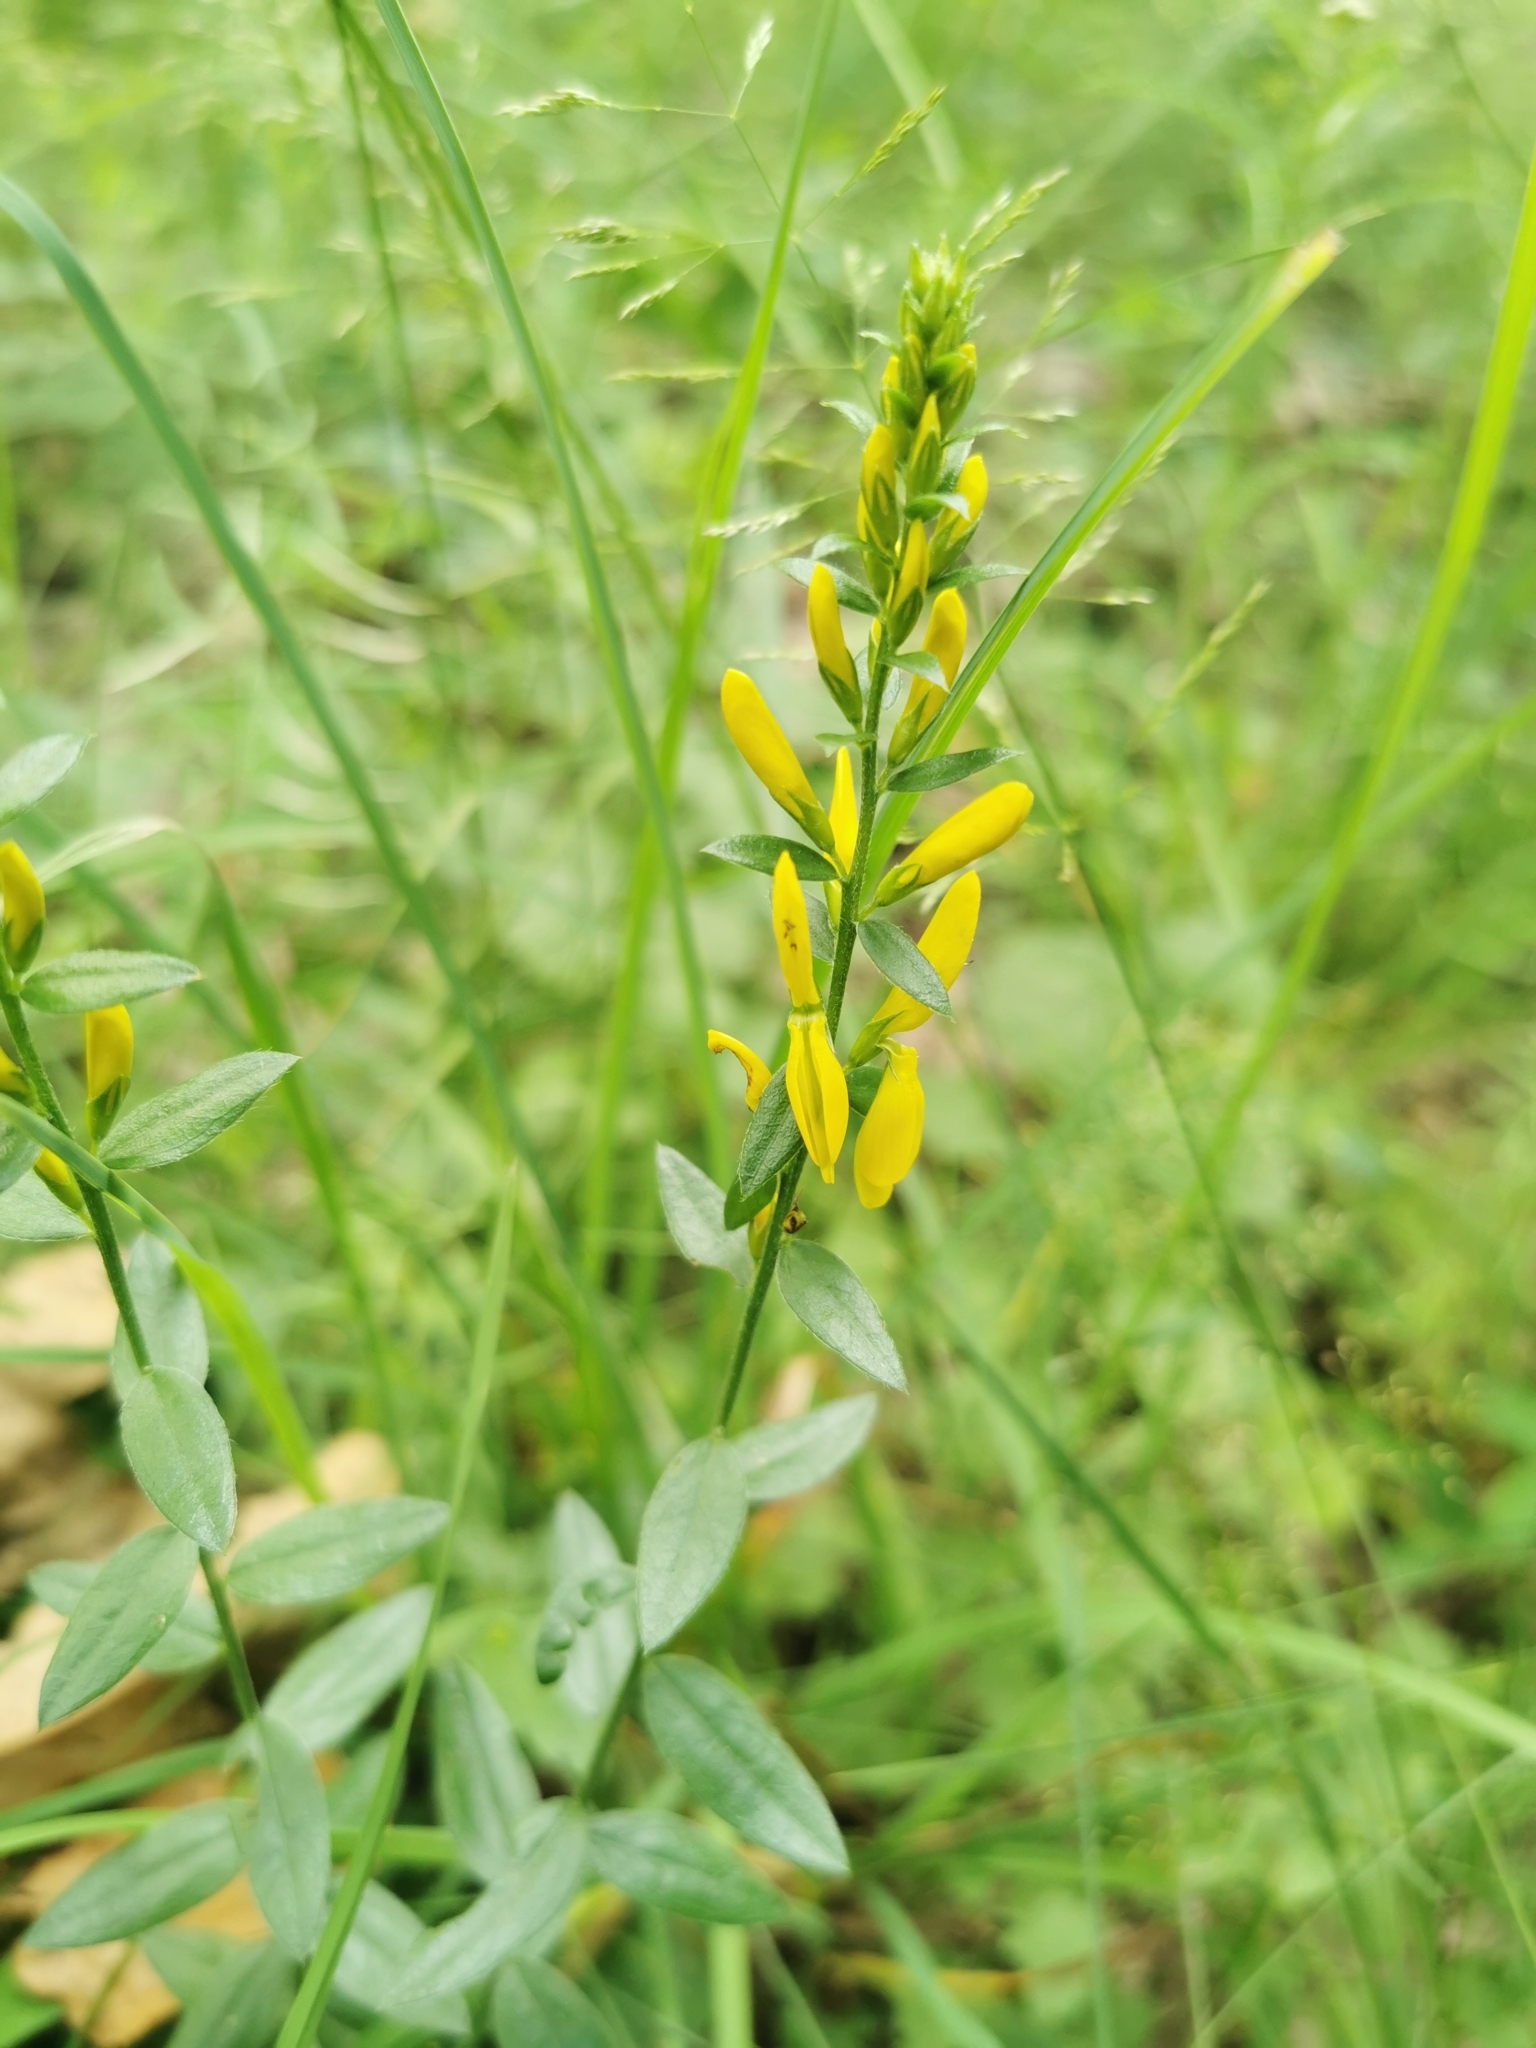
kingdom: Plantae
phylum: Tracheophyta
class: Magnoliopsida
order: Fabales
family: Fabaceae
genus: Genista
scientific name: Genista tinctoria
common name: Dyer's greenweed
